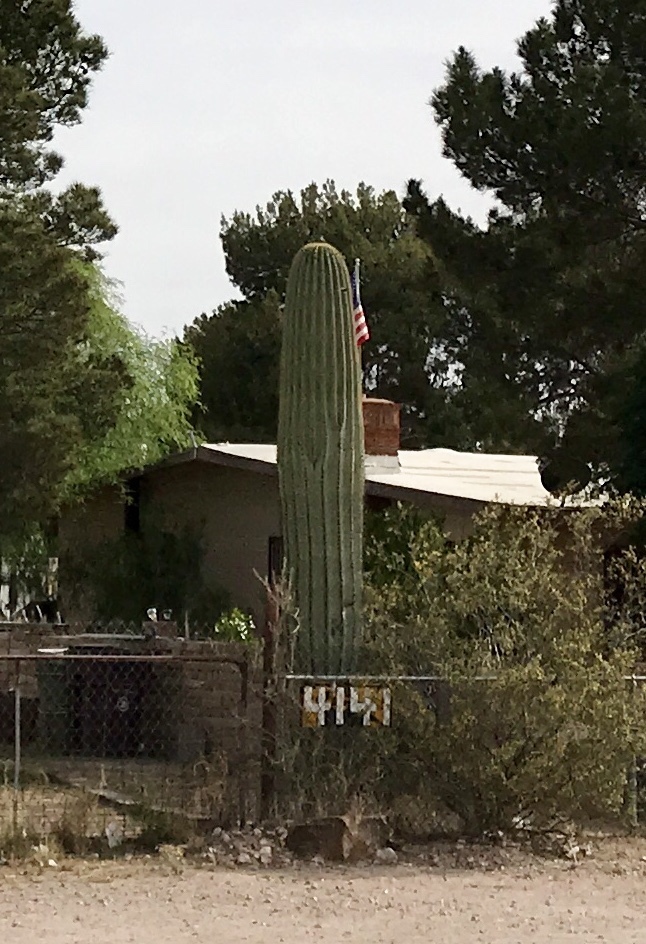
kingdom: Plantae
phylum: Tracheophyta
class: Magnoliopsida
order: Caryophyllales
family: Cactaceae
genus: Carnegiea
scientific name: Carnegiea gigantea
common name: Saguaro
